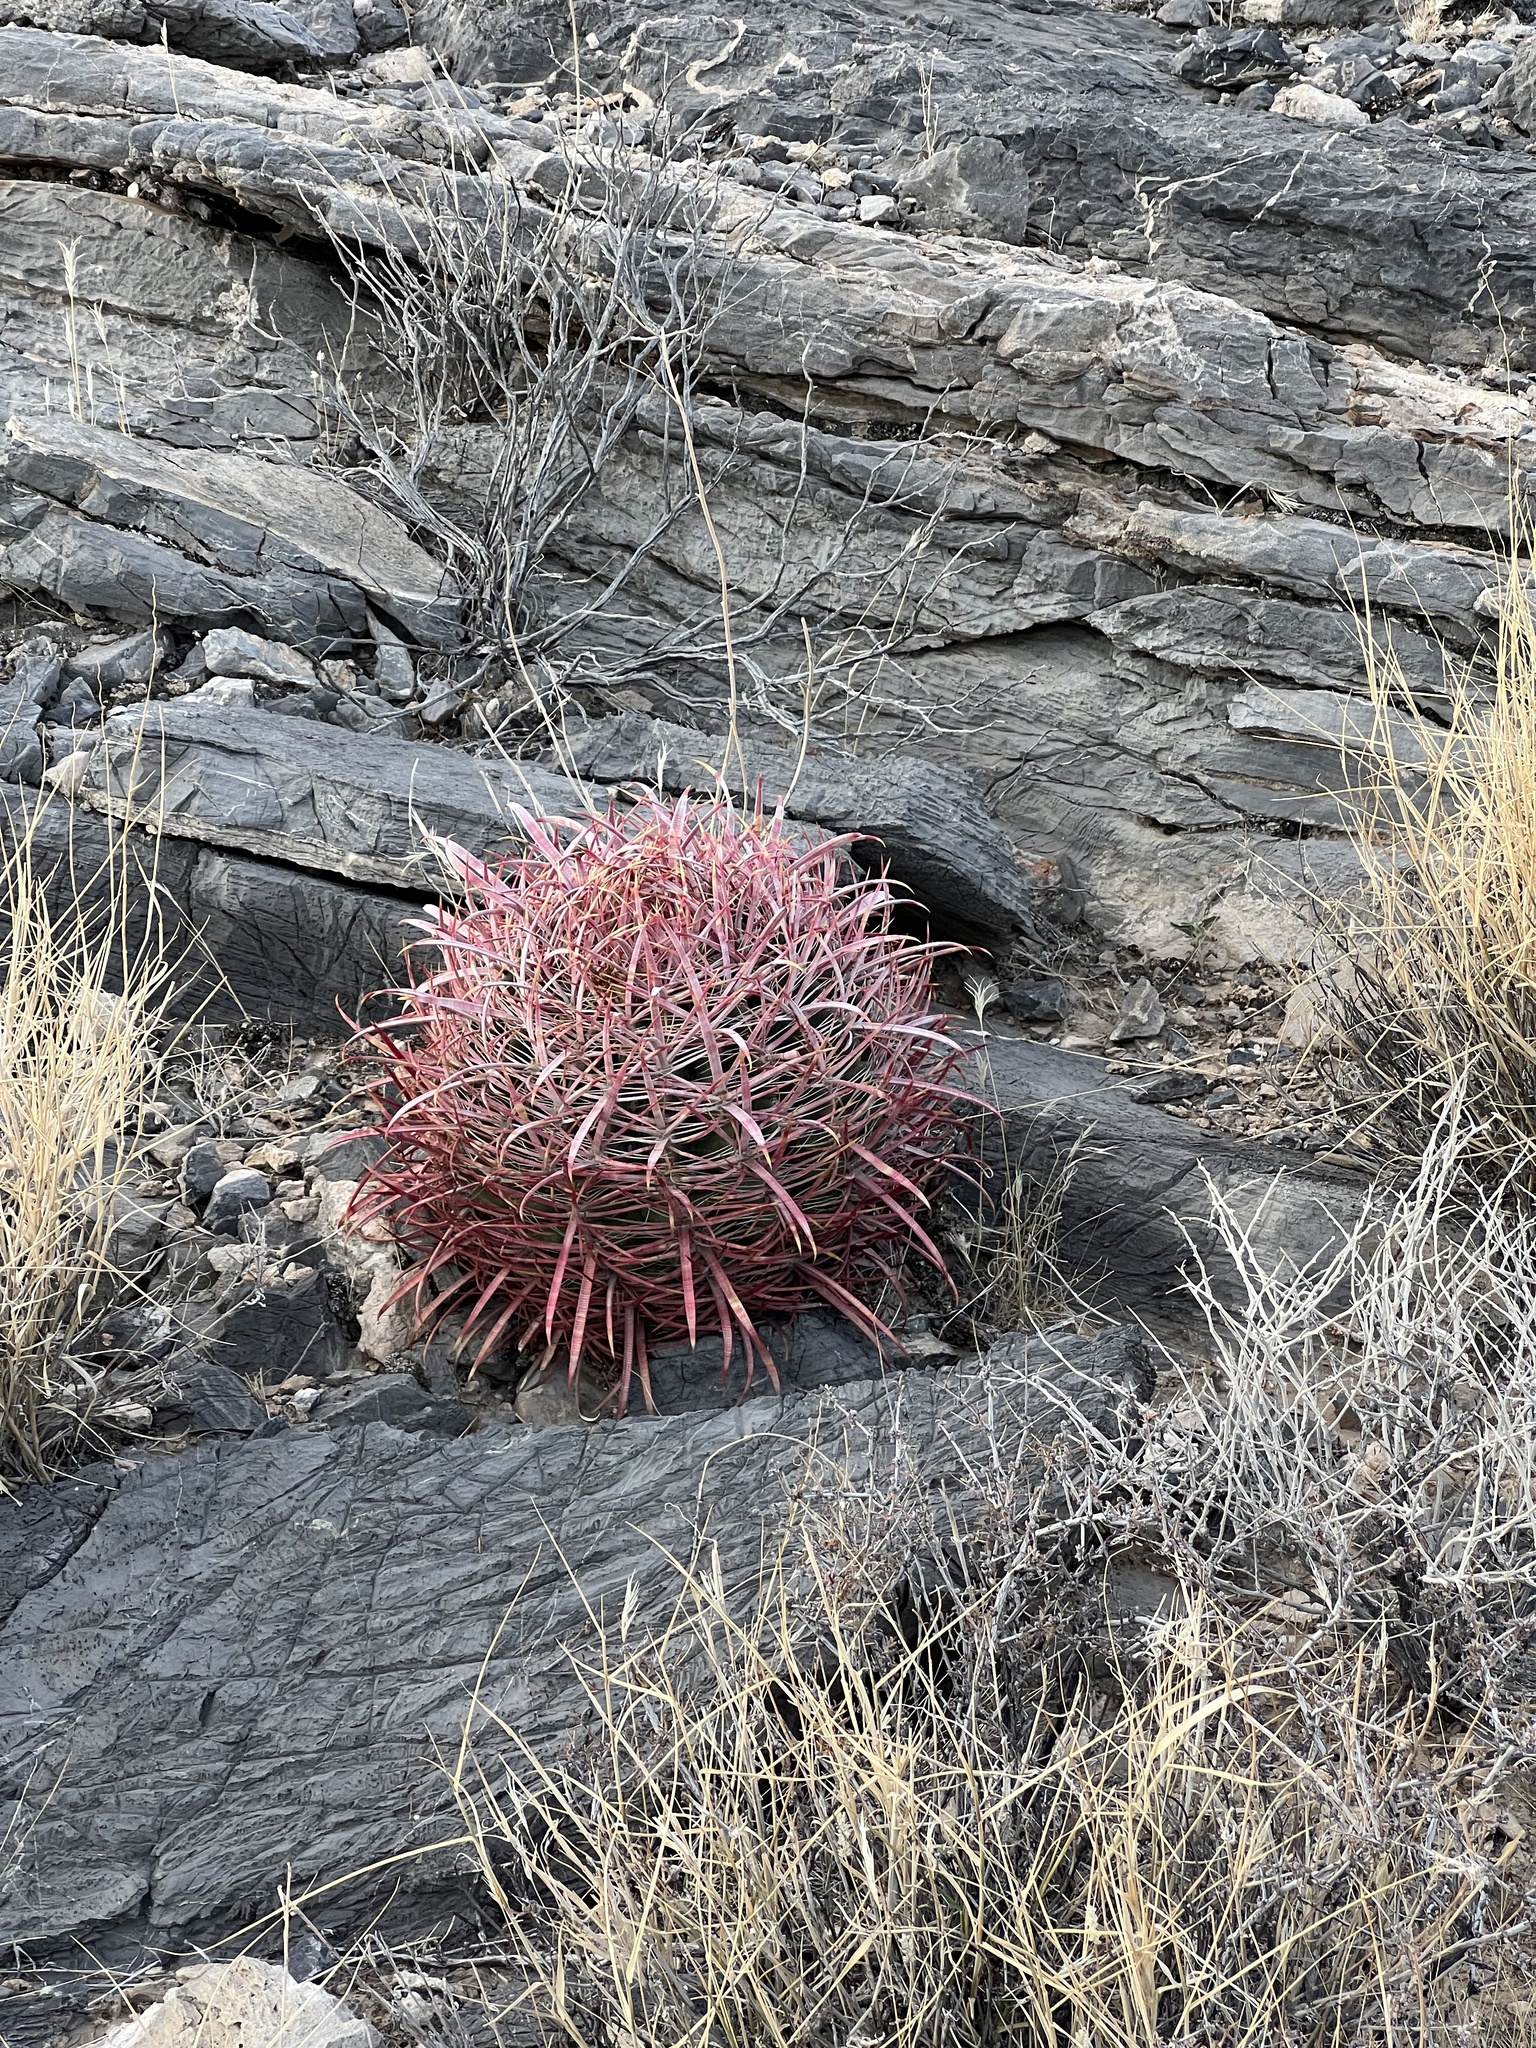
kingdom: Plantae
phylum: Tracheophyta
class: Magnoliopsida
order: Caryophyllales
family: Cactaceae
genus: Ferocactus
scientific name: Ferocactus cylindraceus
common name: California barrel cactus
